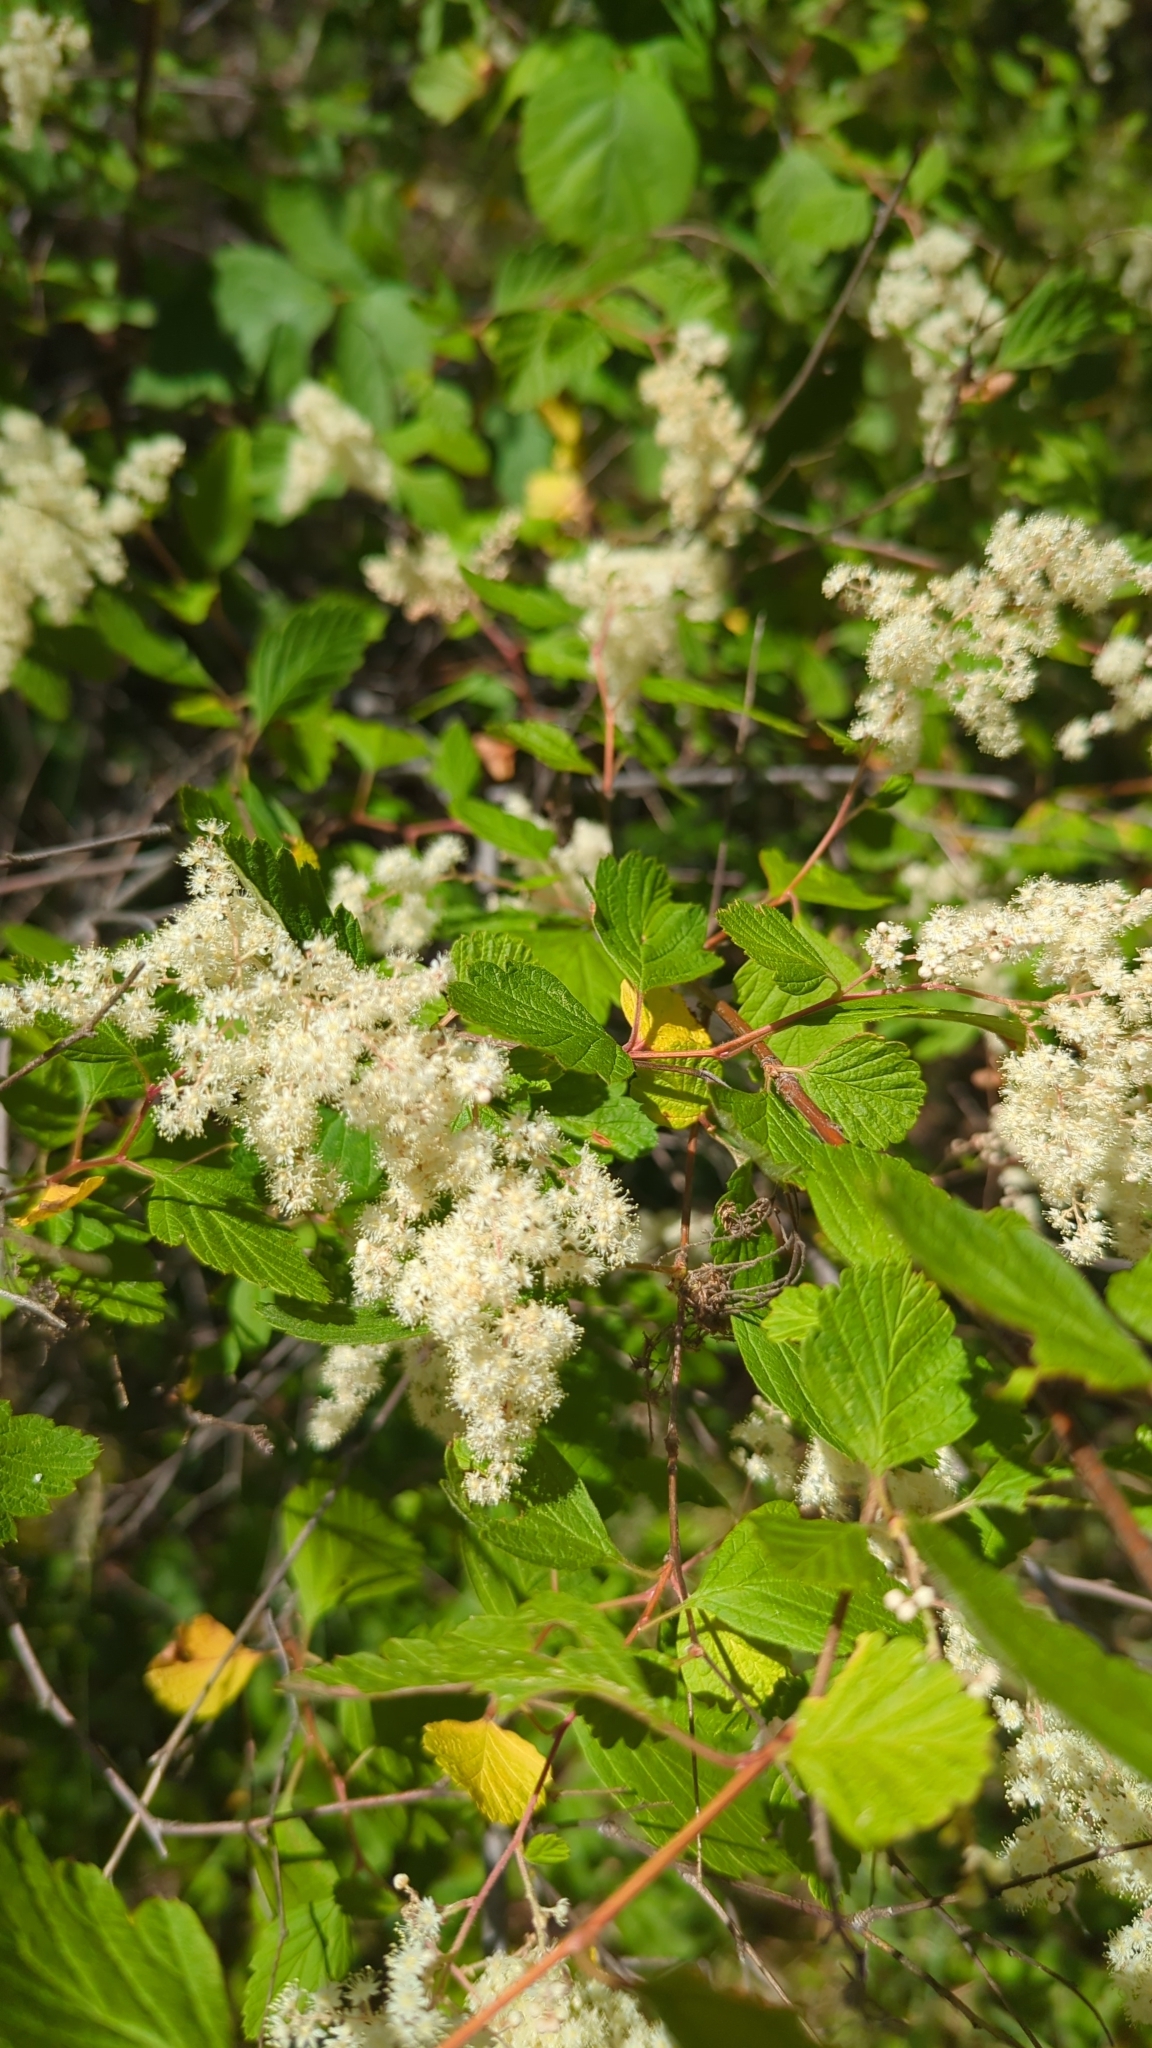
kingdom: Plantae
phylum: Tracheophyta
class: Magnoliopsida
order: Rosales
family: Rosaceae
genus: Holodiscus
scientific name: Holodiscus discolor
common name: Oceanspray
